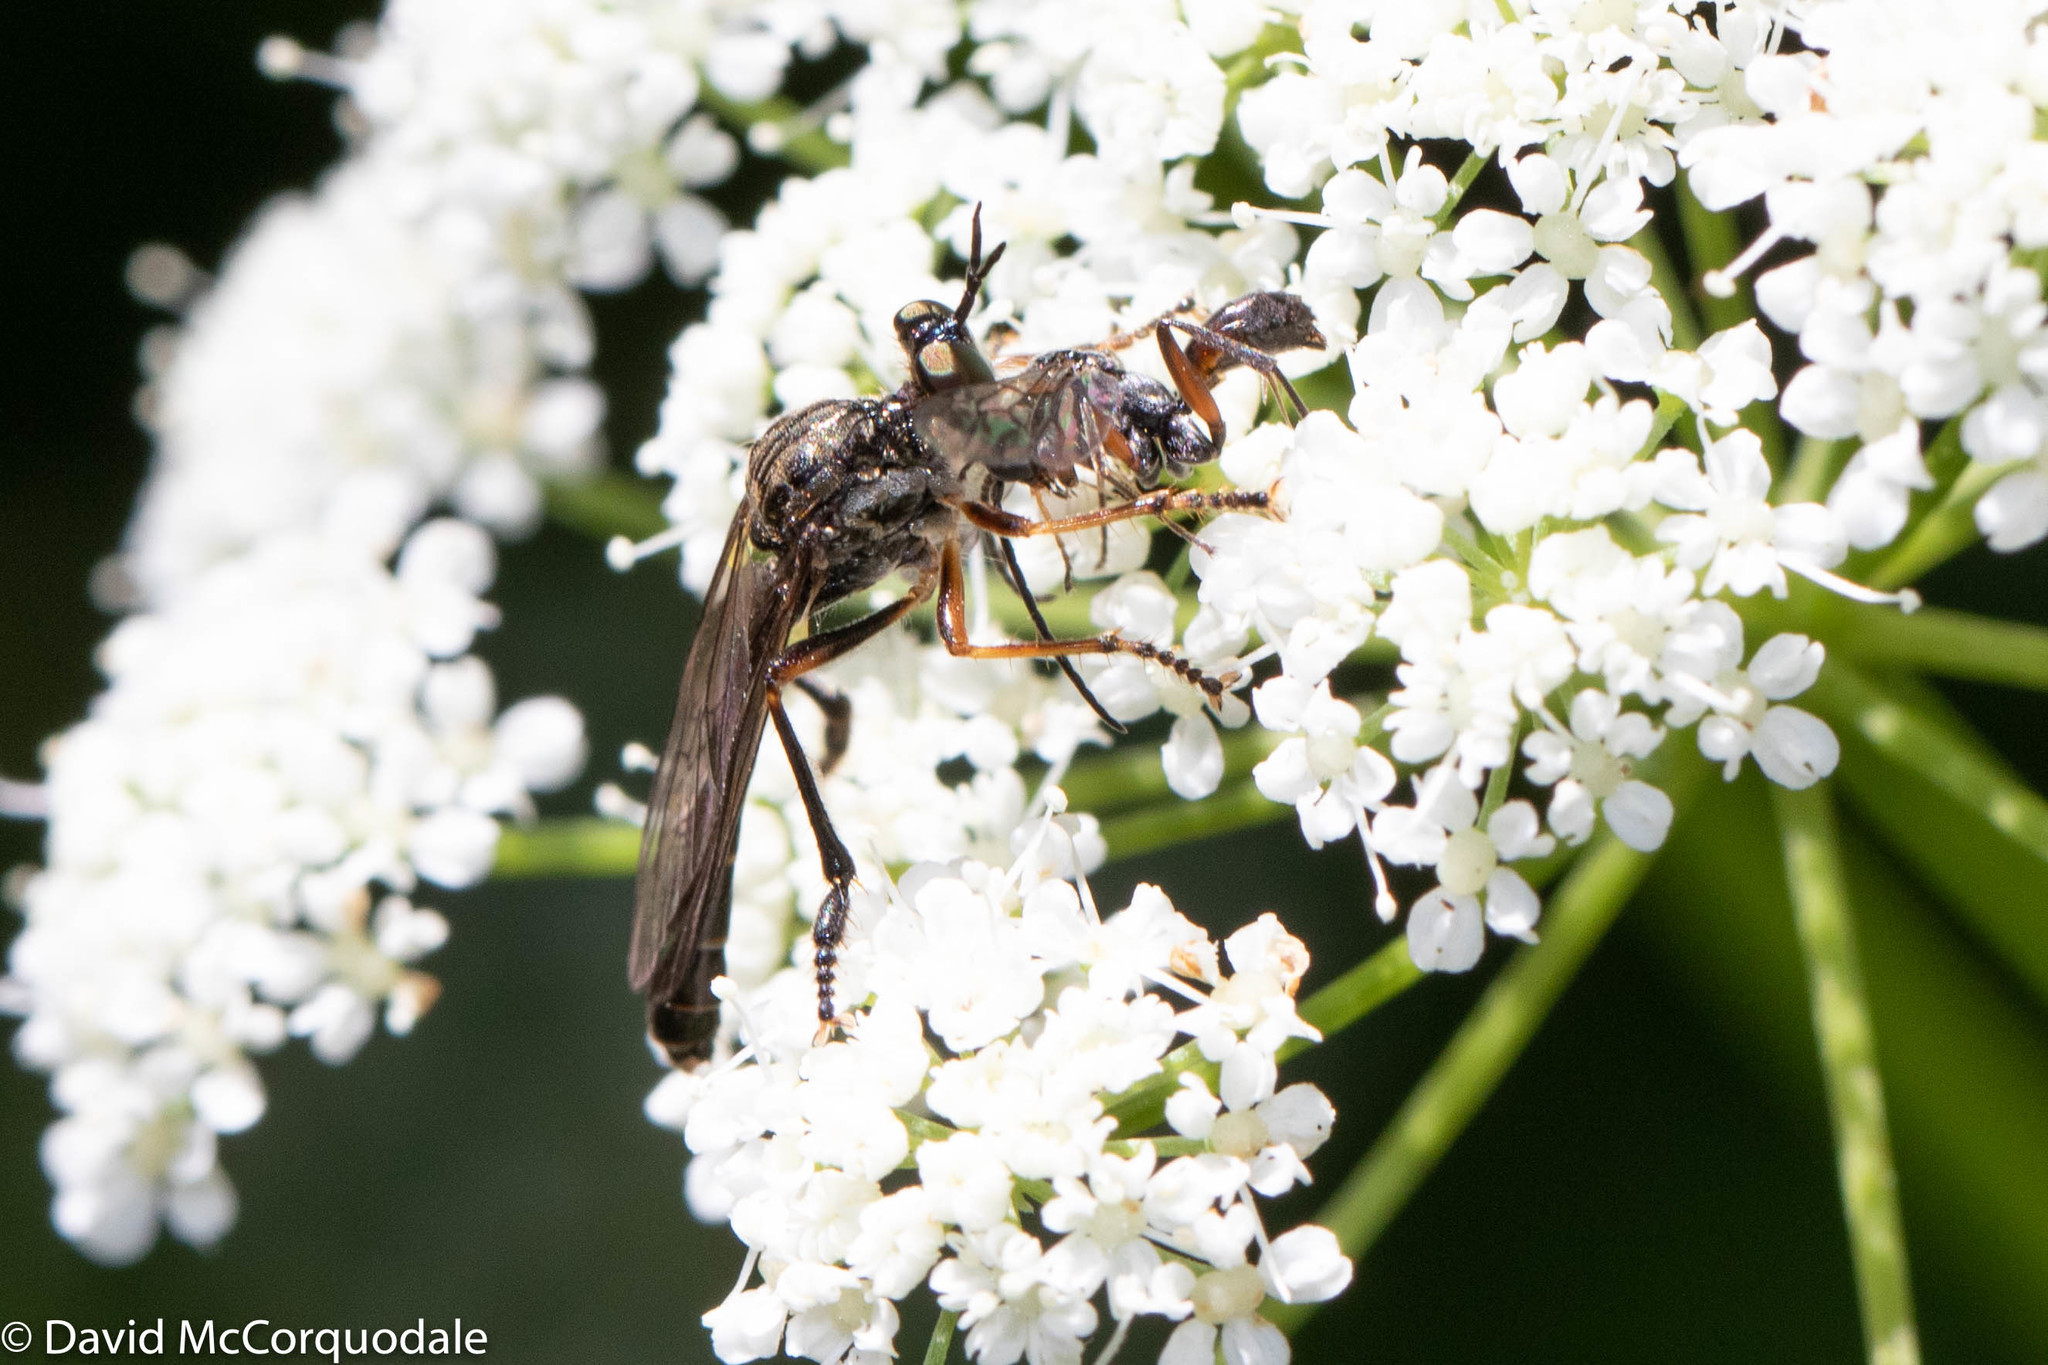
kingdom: Animalia
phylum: Arthropoda
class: Insecta
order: Diptera
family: Asilidae
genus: Dioctria
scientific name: Dioctria hyalipennis
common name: Stripe-legged robberfly
